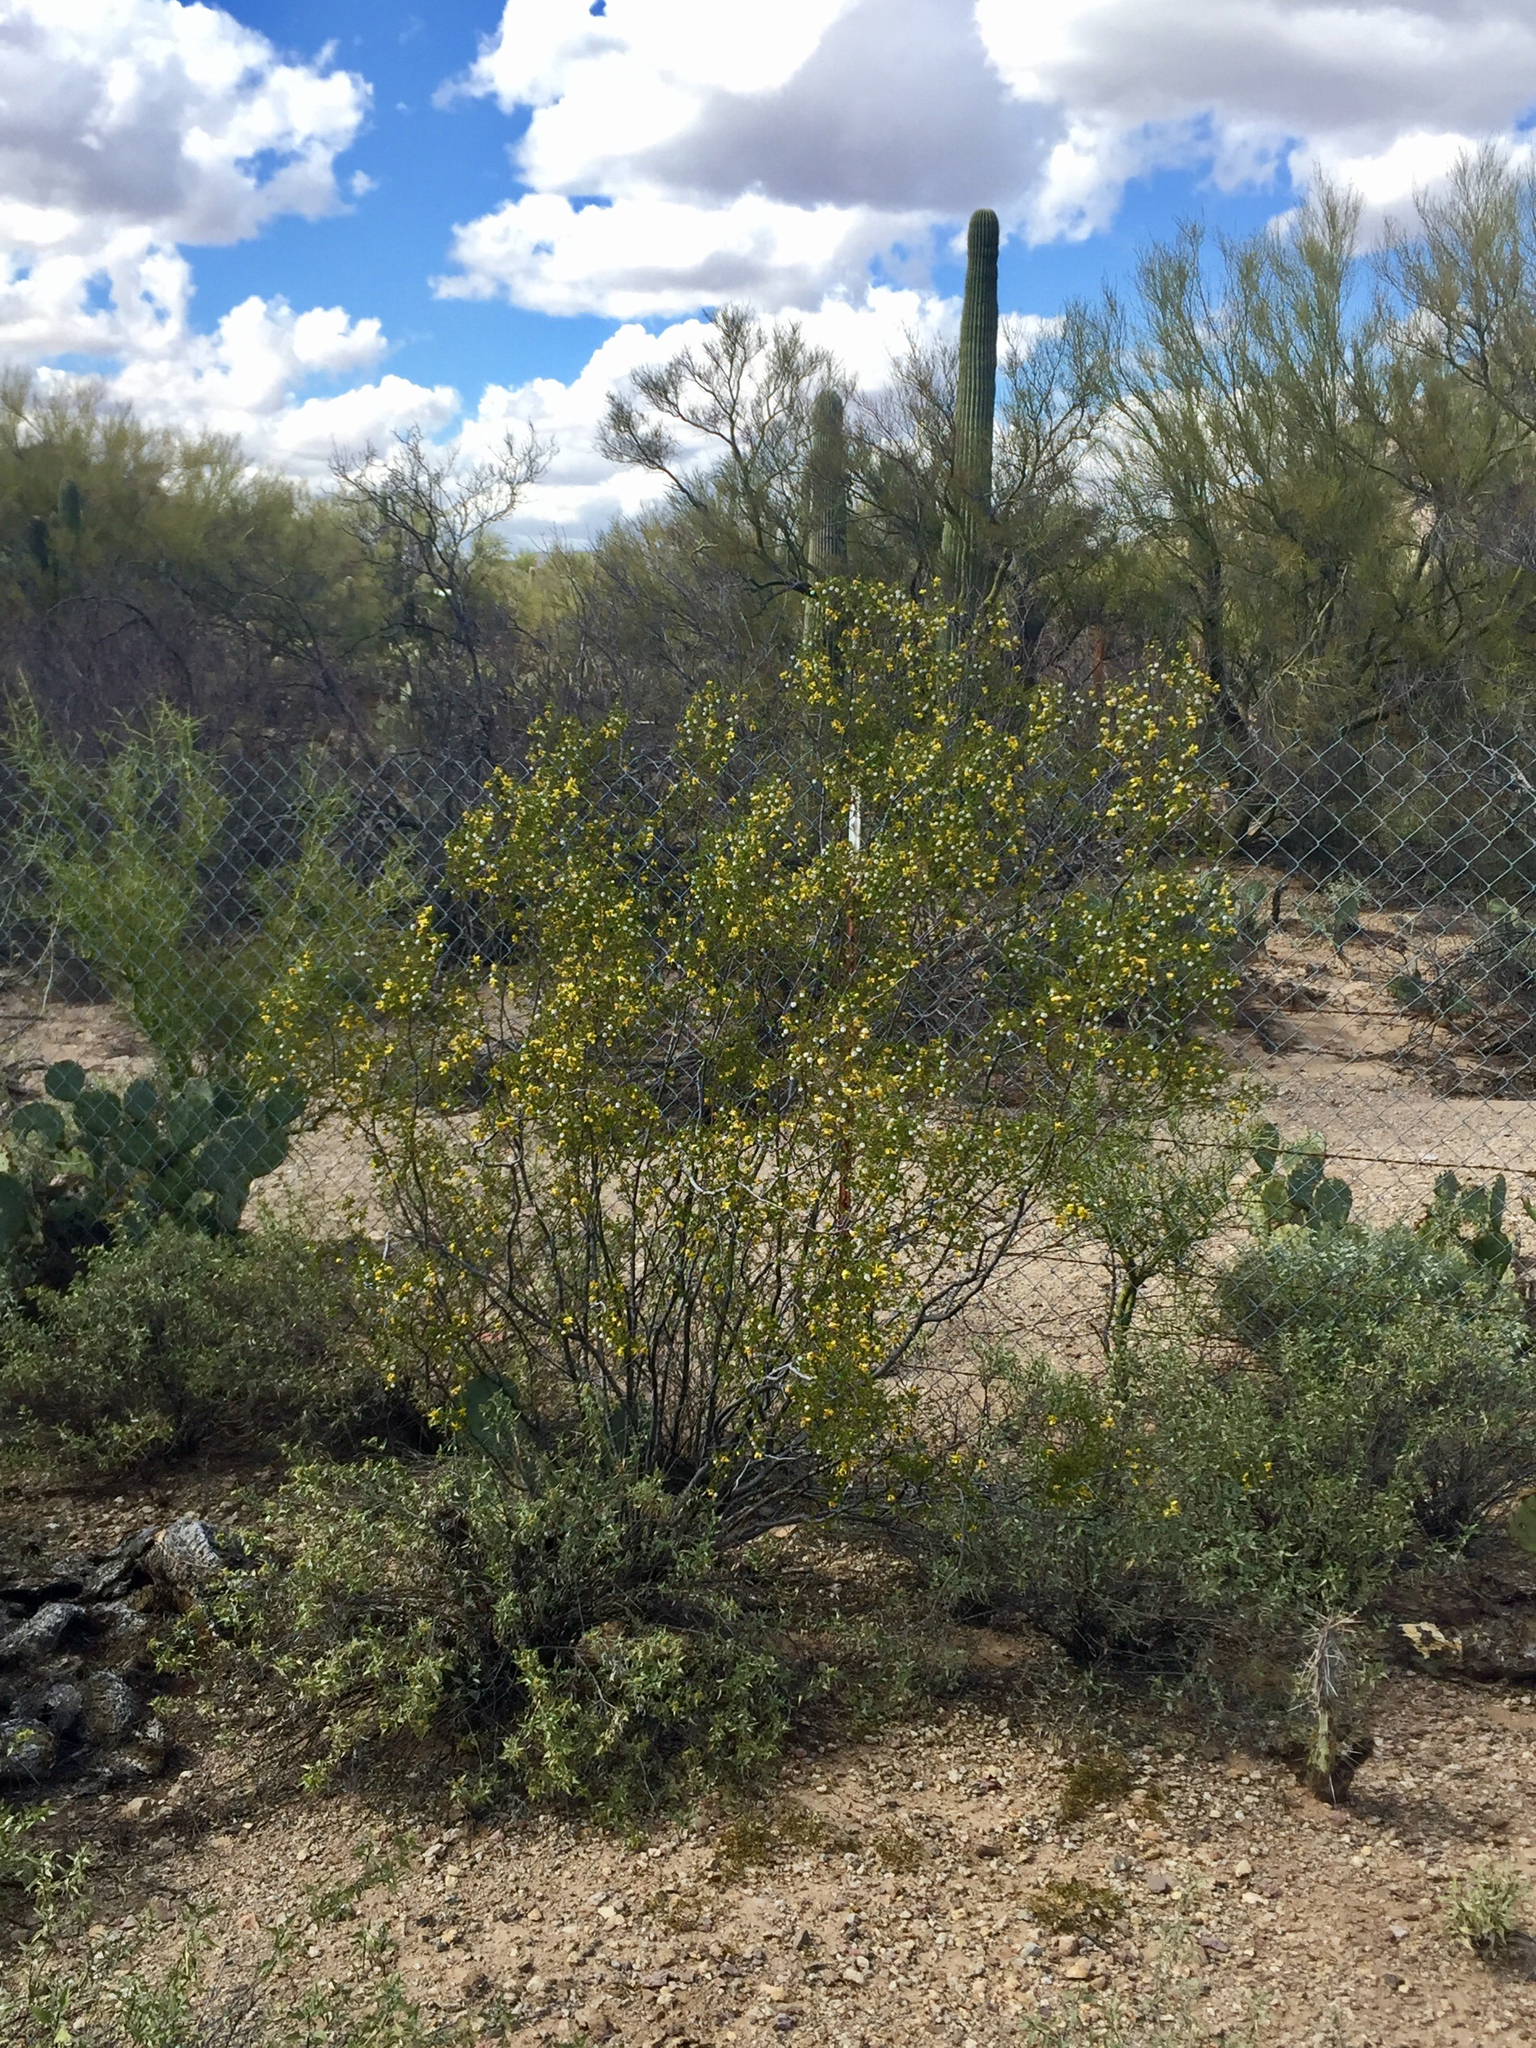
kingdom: Plantae
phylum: Tracheophyta
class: Magnoliopsida
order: Zygophyllales
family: Zygophyllaceae
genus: Larrea
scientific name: Larrea tridentata
